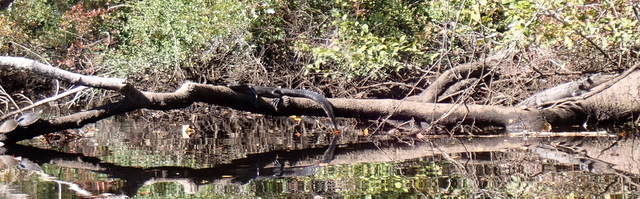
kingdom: Animalia
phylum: Chordata
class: Crocodylia
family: Alligatoridae
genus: Alligator
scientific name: Alligator mississippiensis
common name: American alligator
